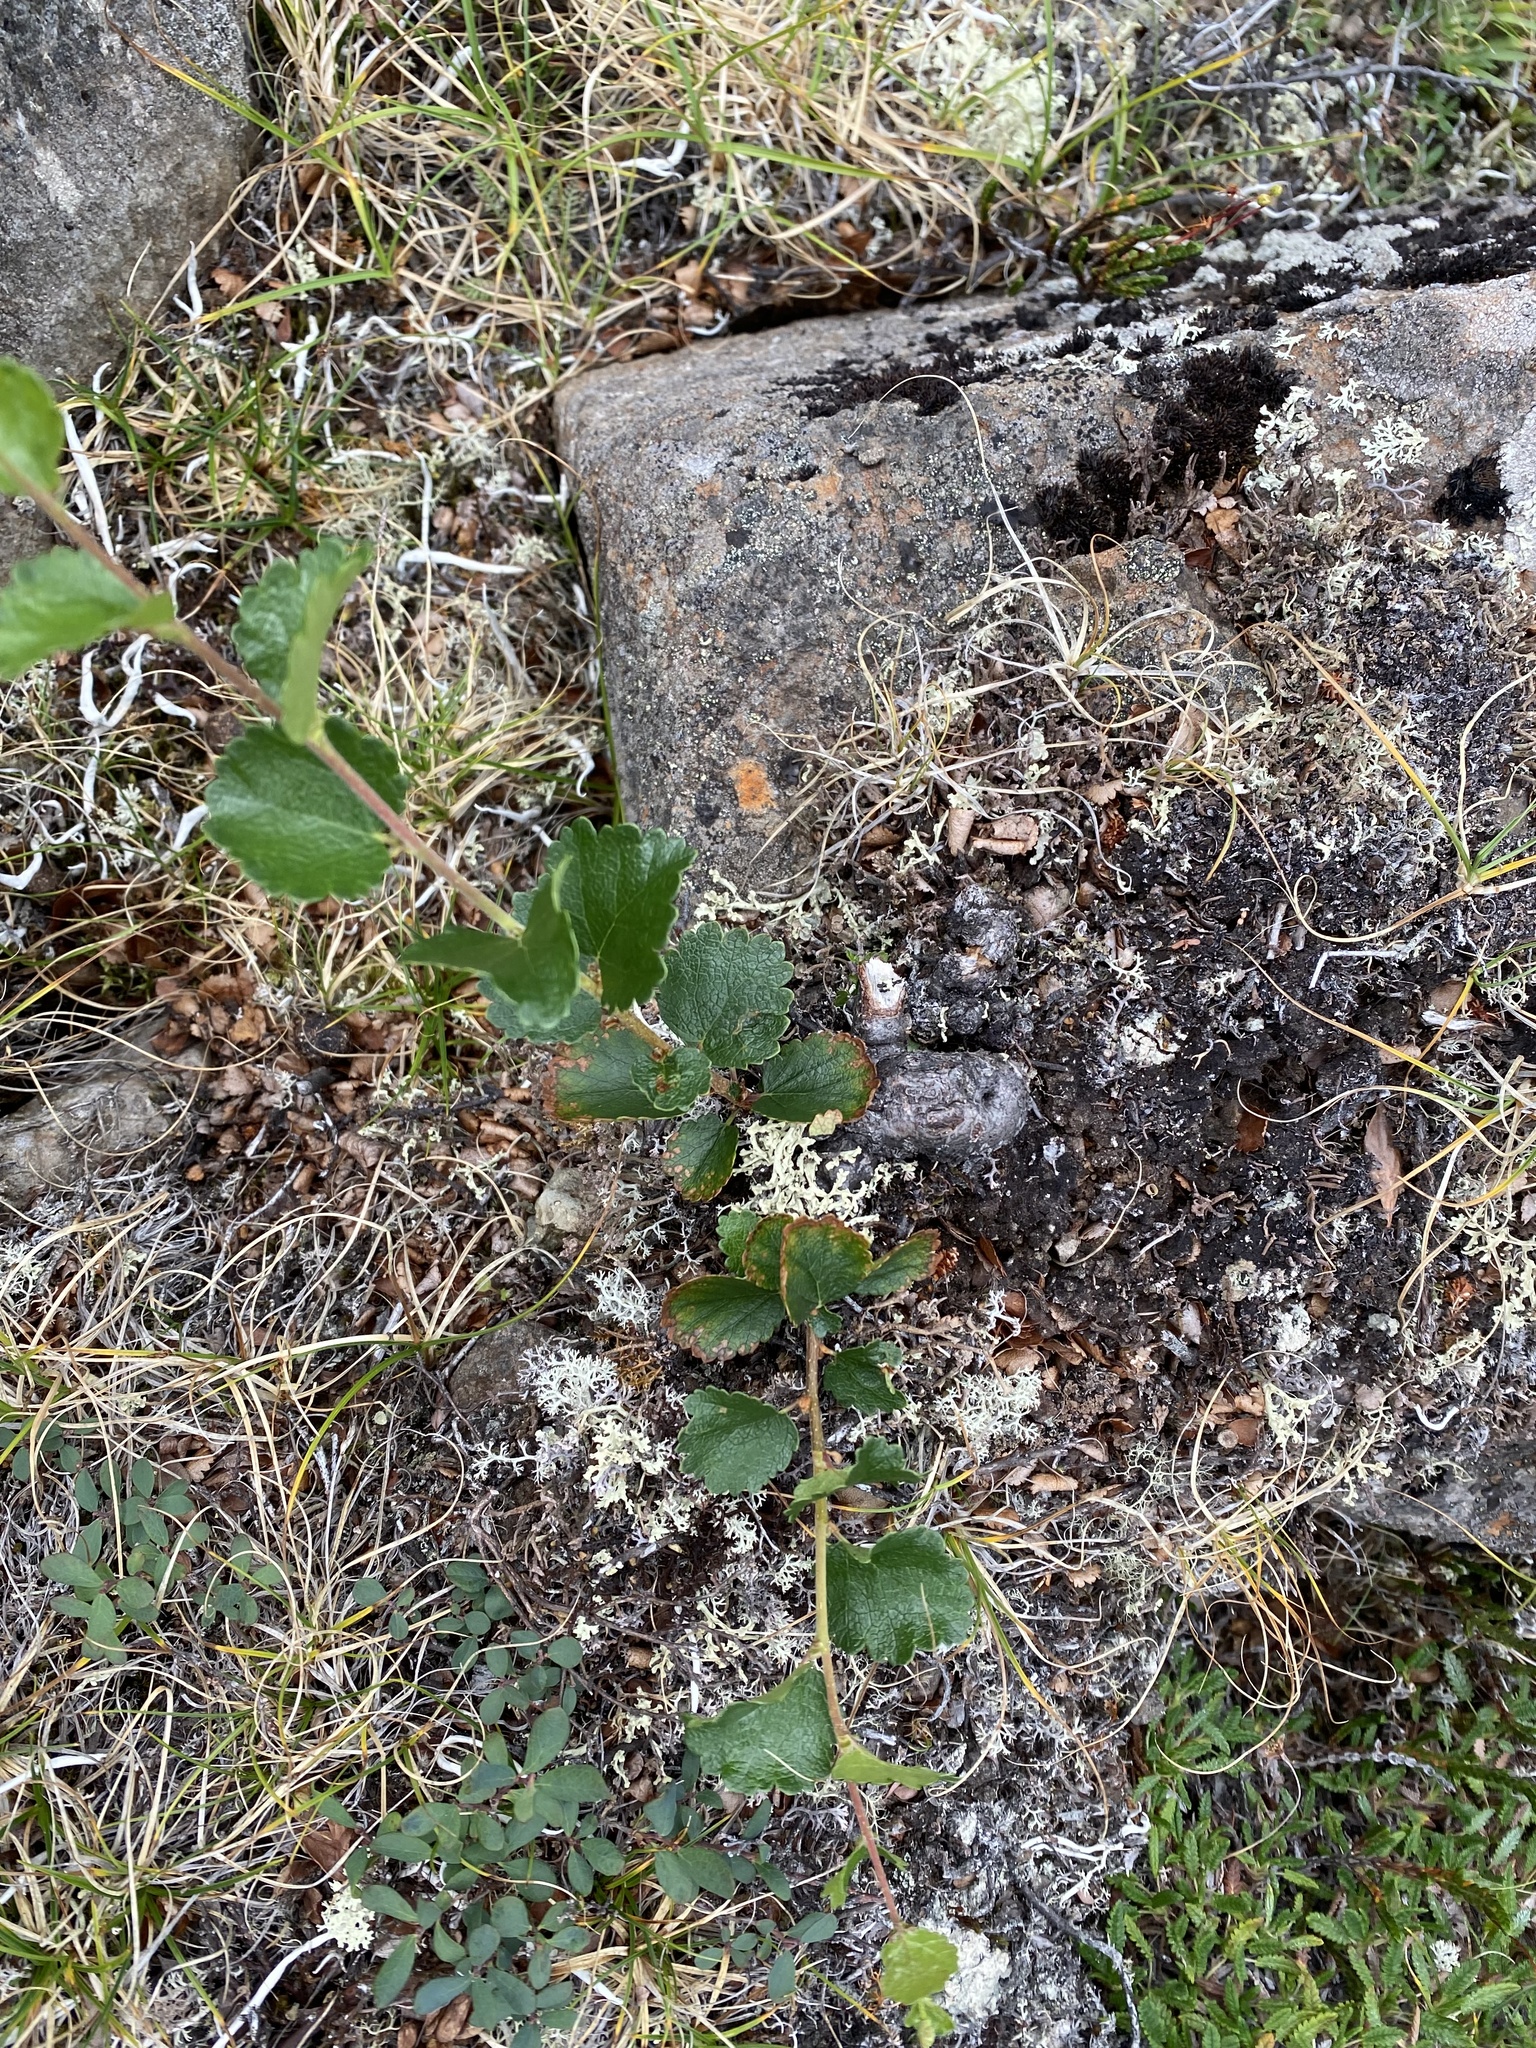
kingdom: Plantae
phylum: Tracheophyta
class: Magnoliopsida
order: Fagales
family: Betulaceae
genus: Betula
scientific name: Betula nana
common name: Arctic dwarf birch
